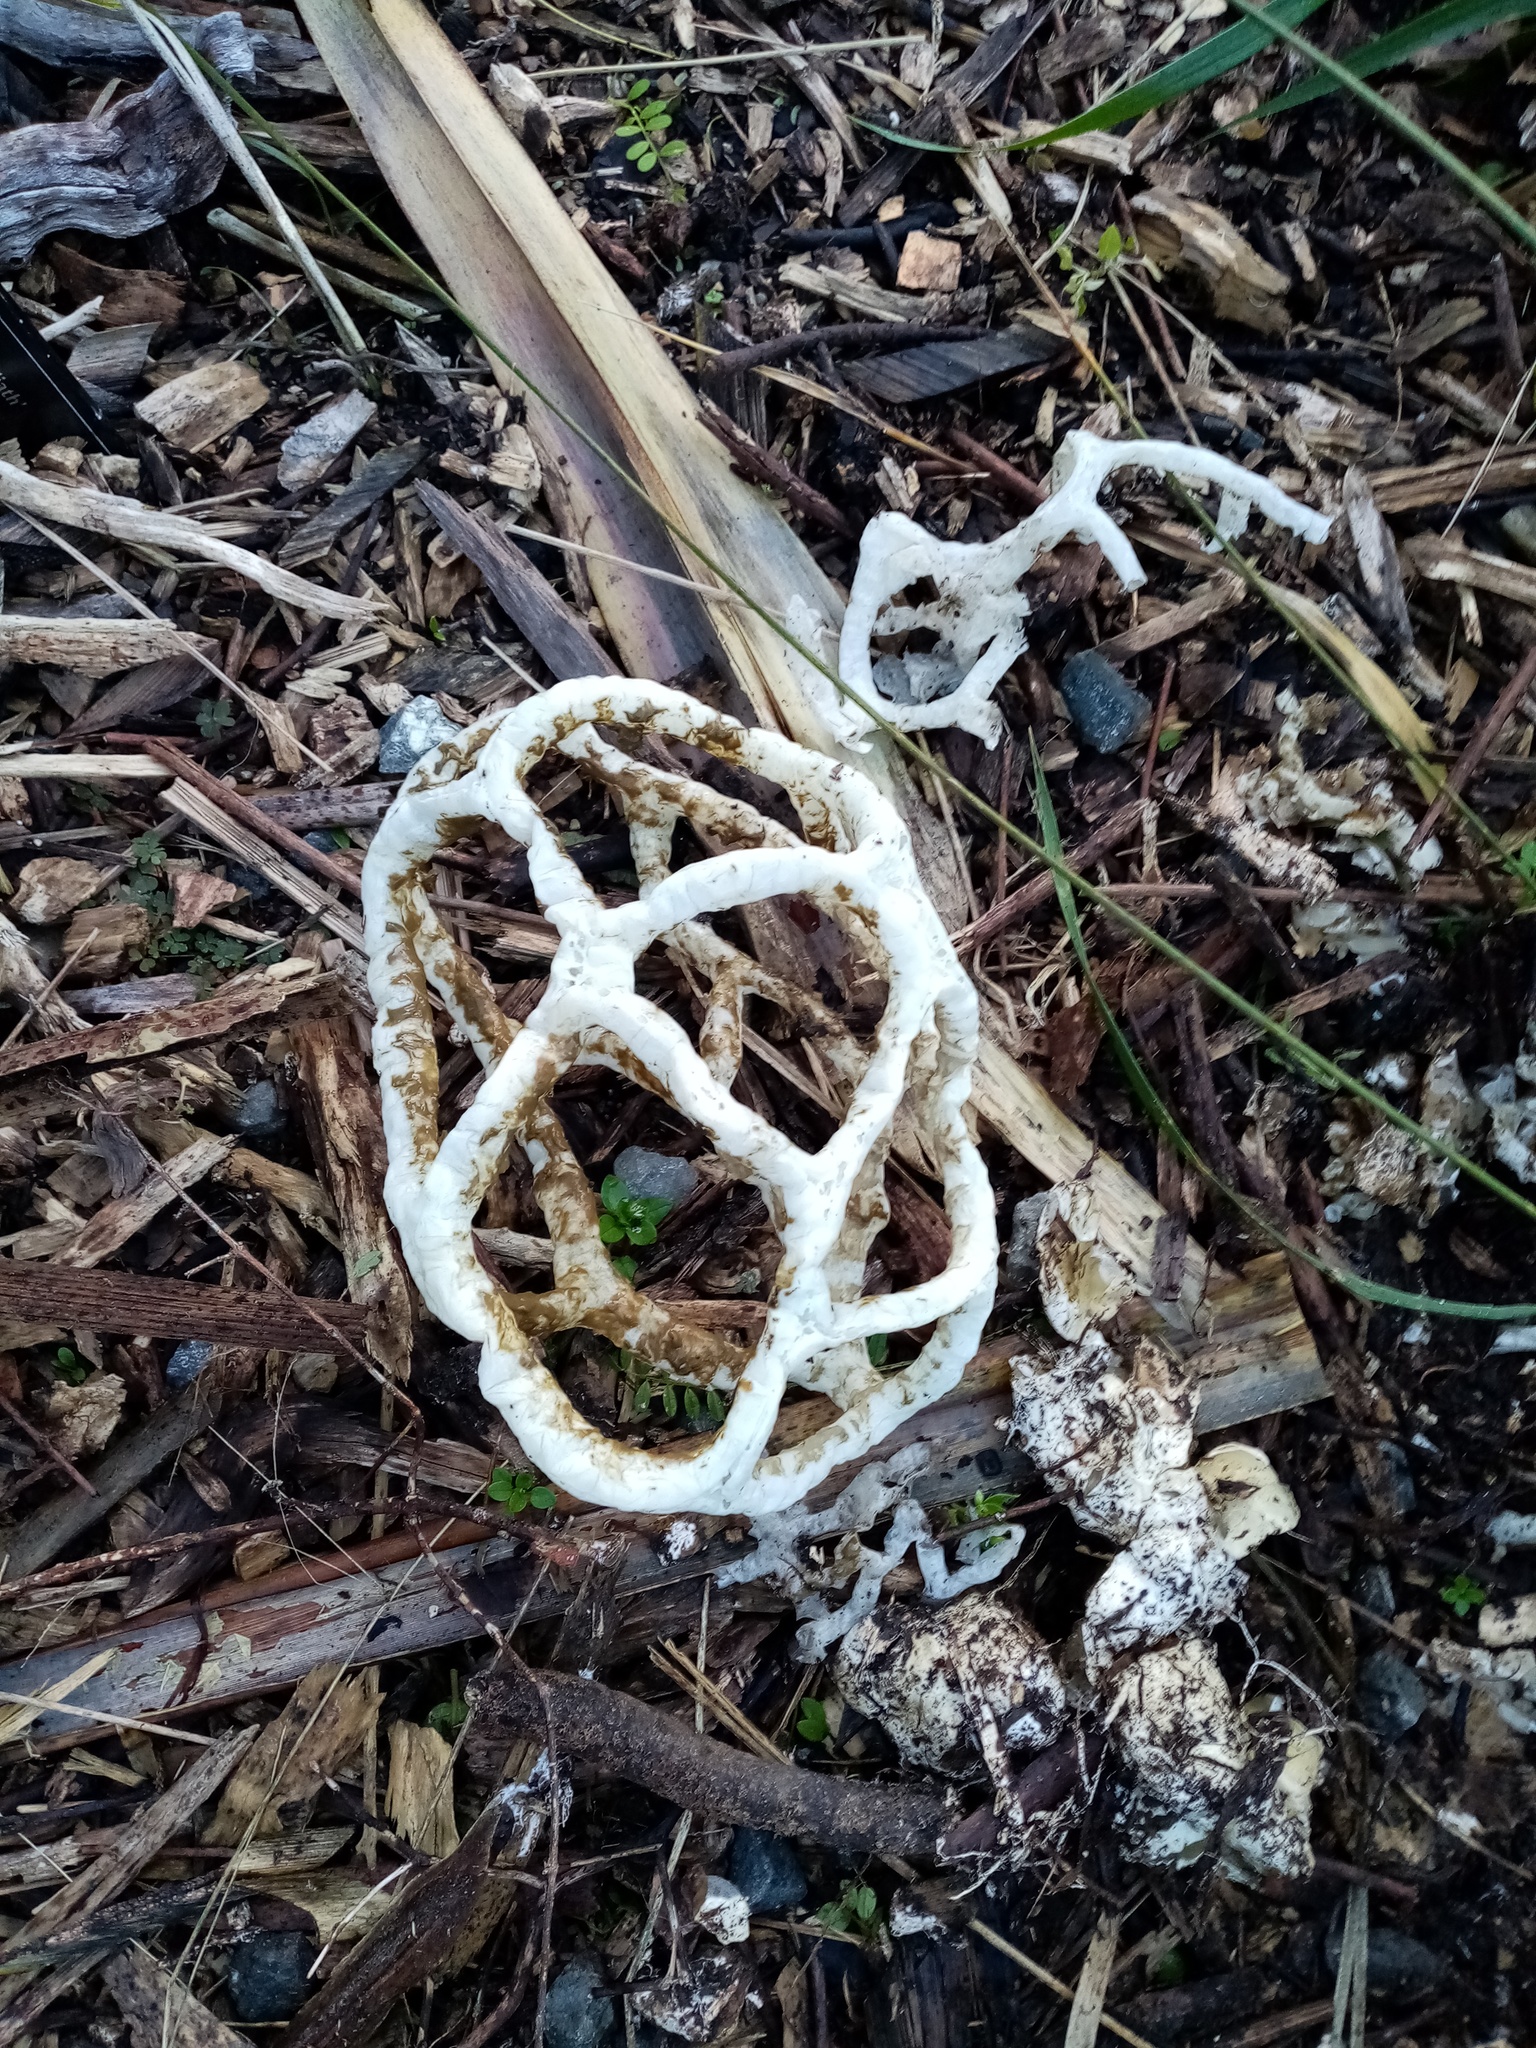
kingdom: Fungi
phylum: Basidiomycota
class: Agaricomycetes
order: Phallales
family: Phallaceae
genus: Ileodictyon
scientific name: Ileodictyon cibarium
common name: Basket fungus
